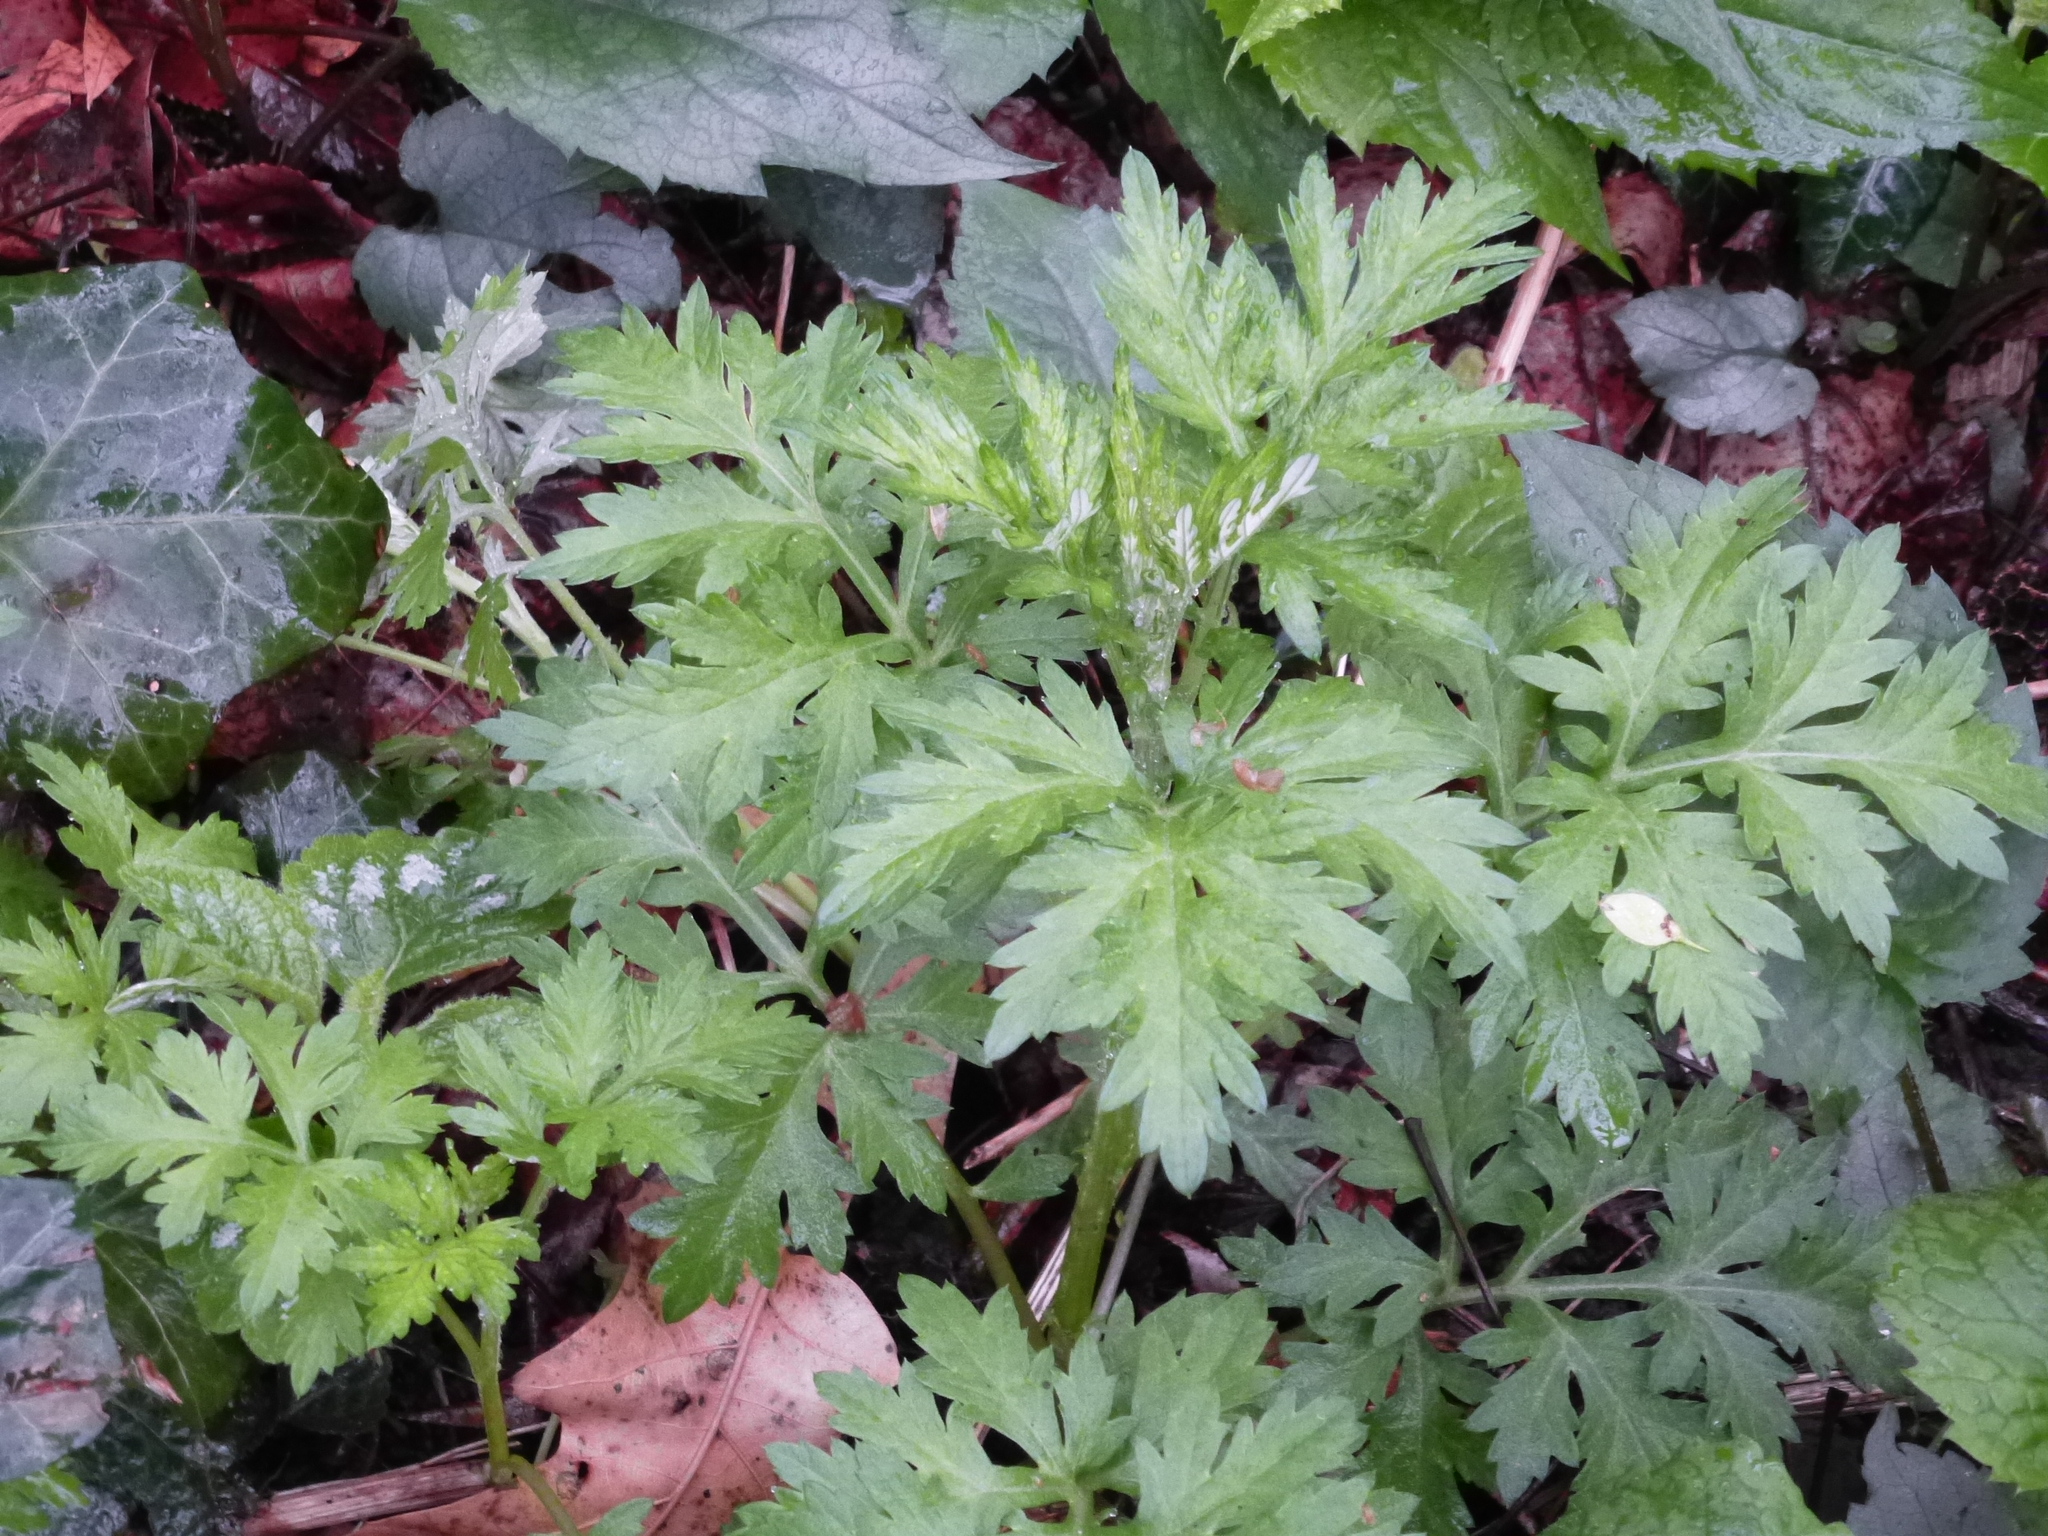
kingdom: Plantae
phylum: Tracheophyta
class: Magnoliopsida
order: Asterales
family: Asteraceae
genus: Artemisia
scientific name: Artemisia vulgaris
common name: Mugwort
